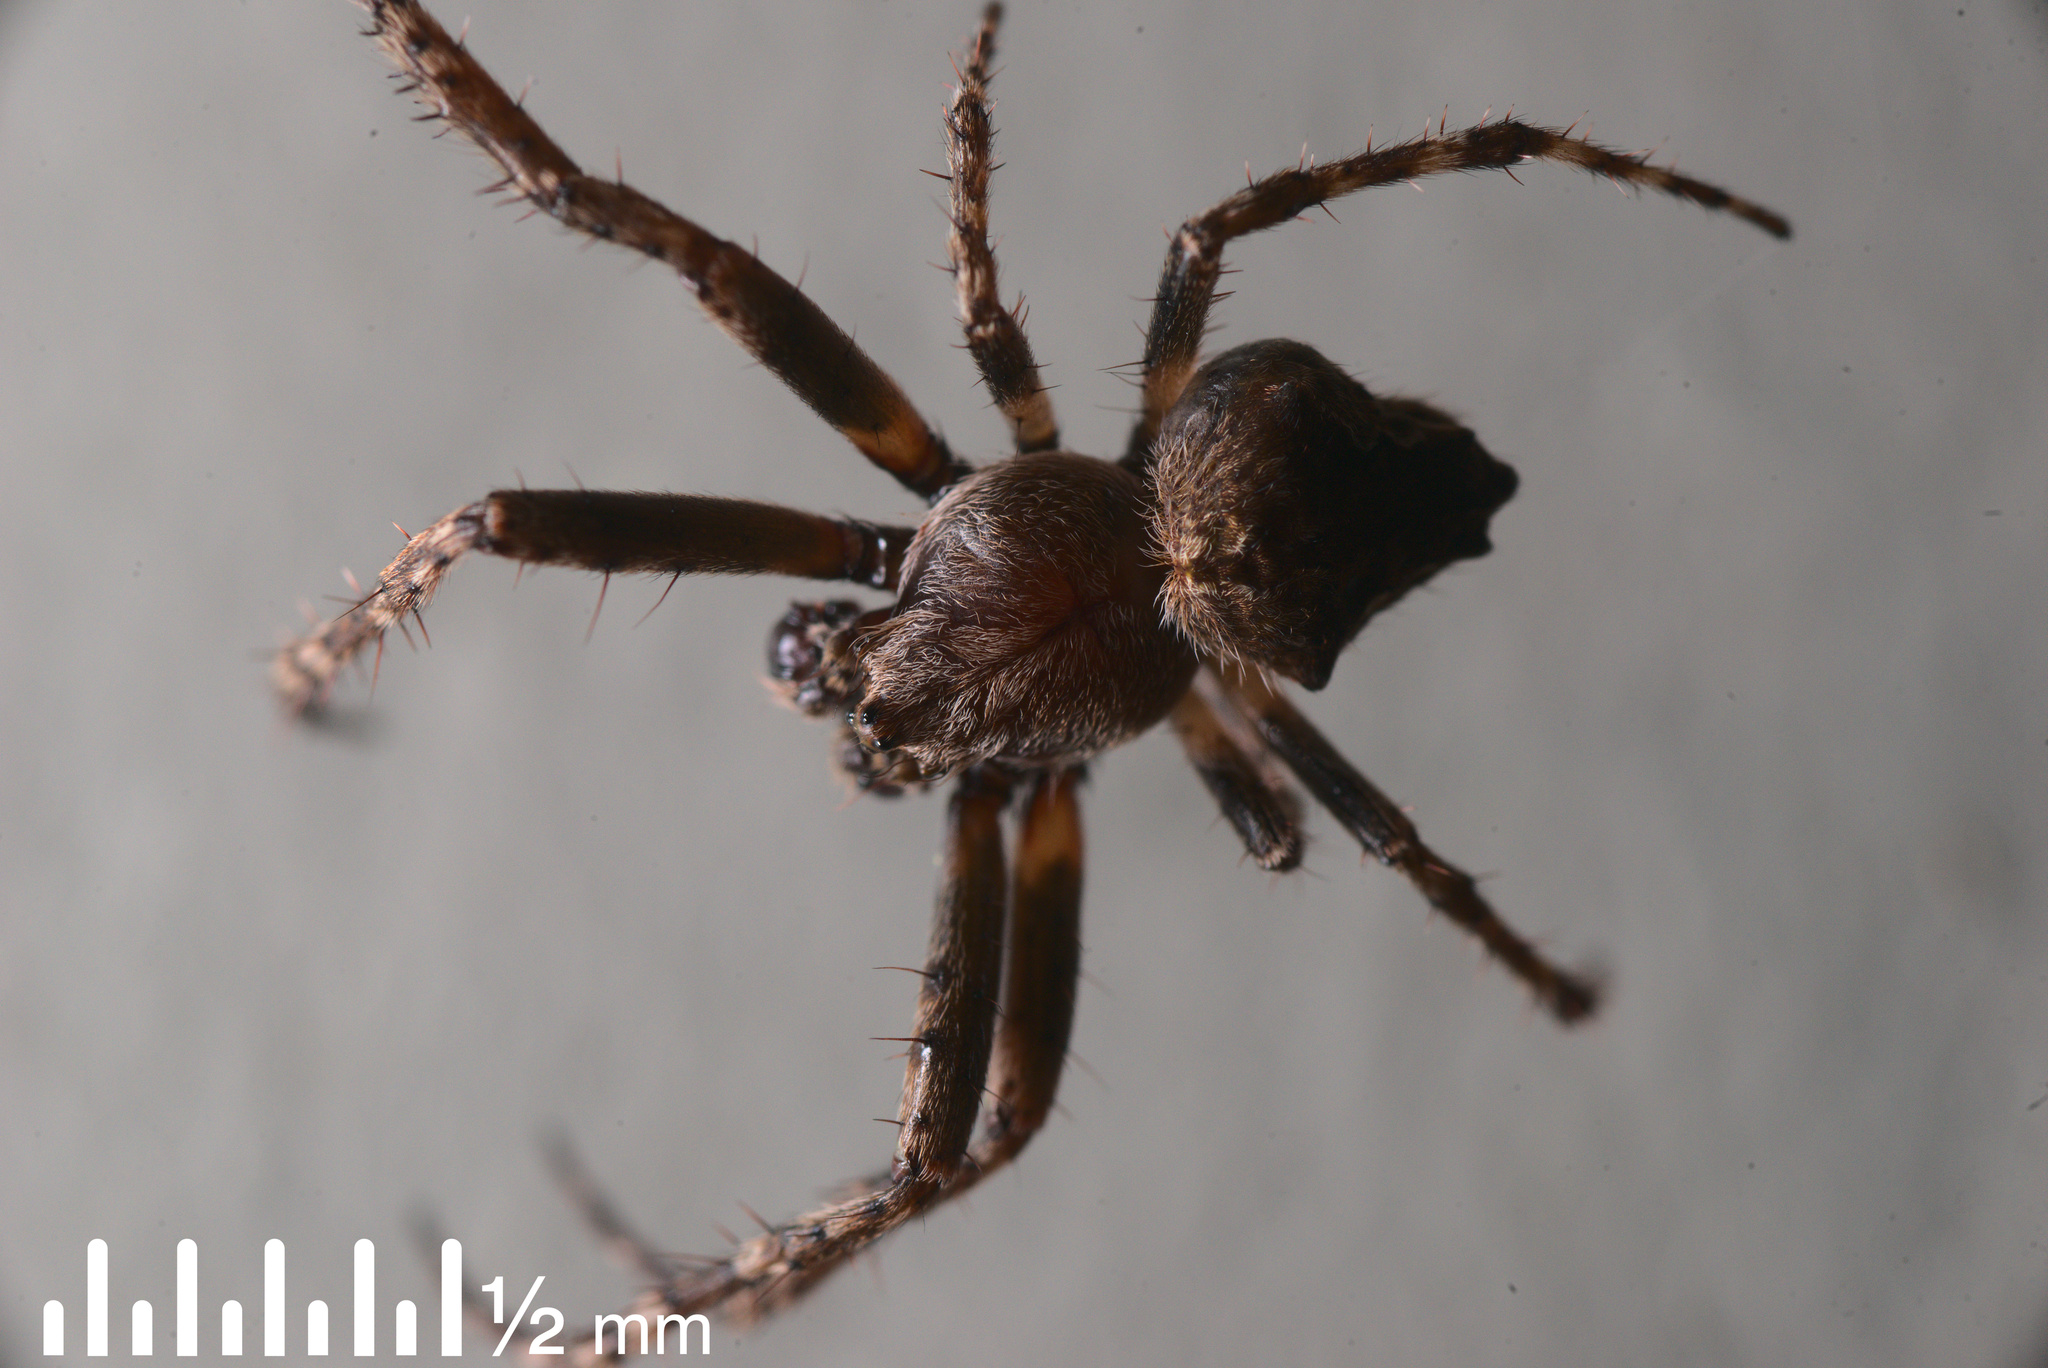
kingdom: Animalia
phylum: Arthropoda
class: Arachnida
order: Araneae
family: Araneidae
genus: Eriophora
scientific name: Eriophora pustulosa
